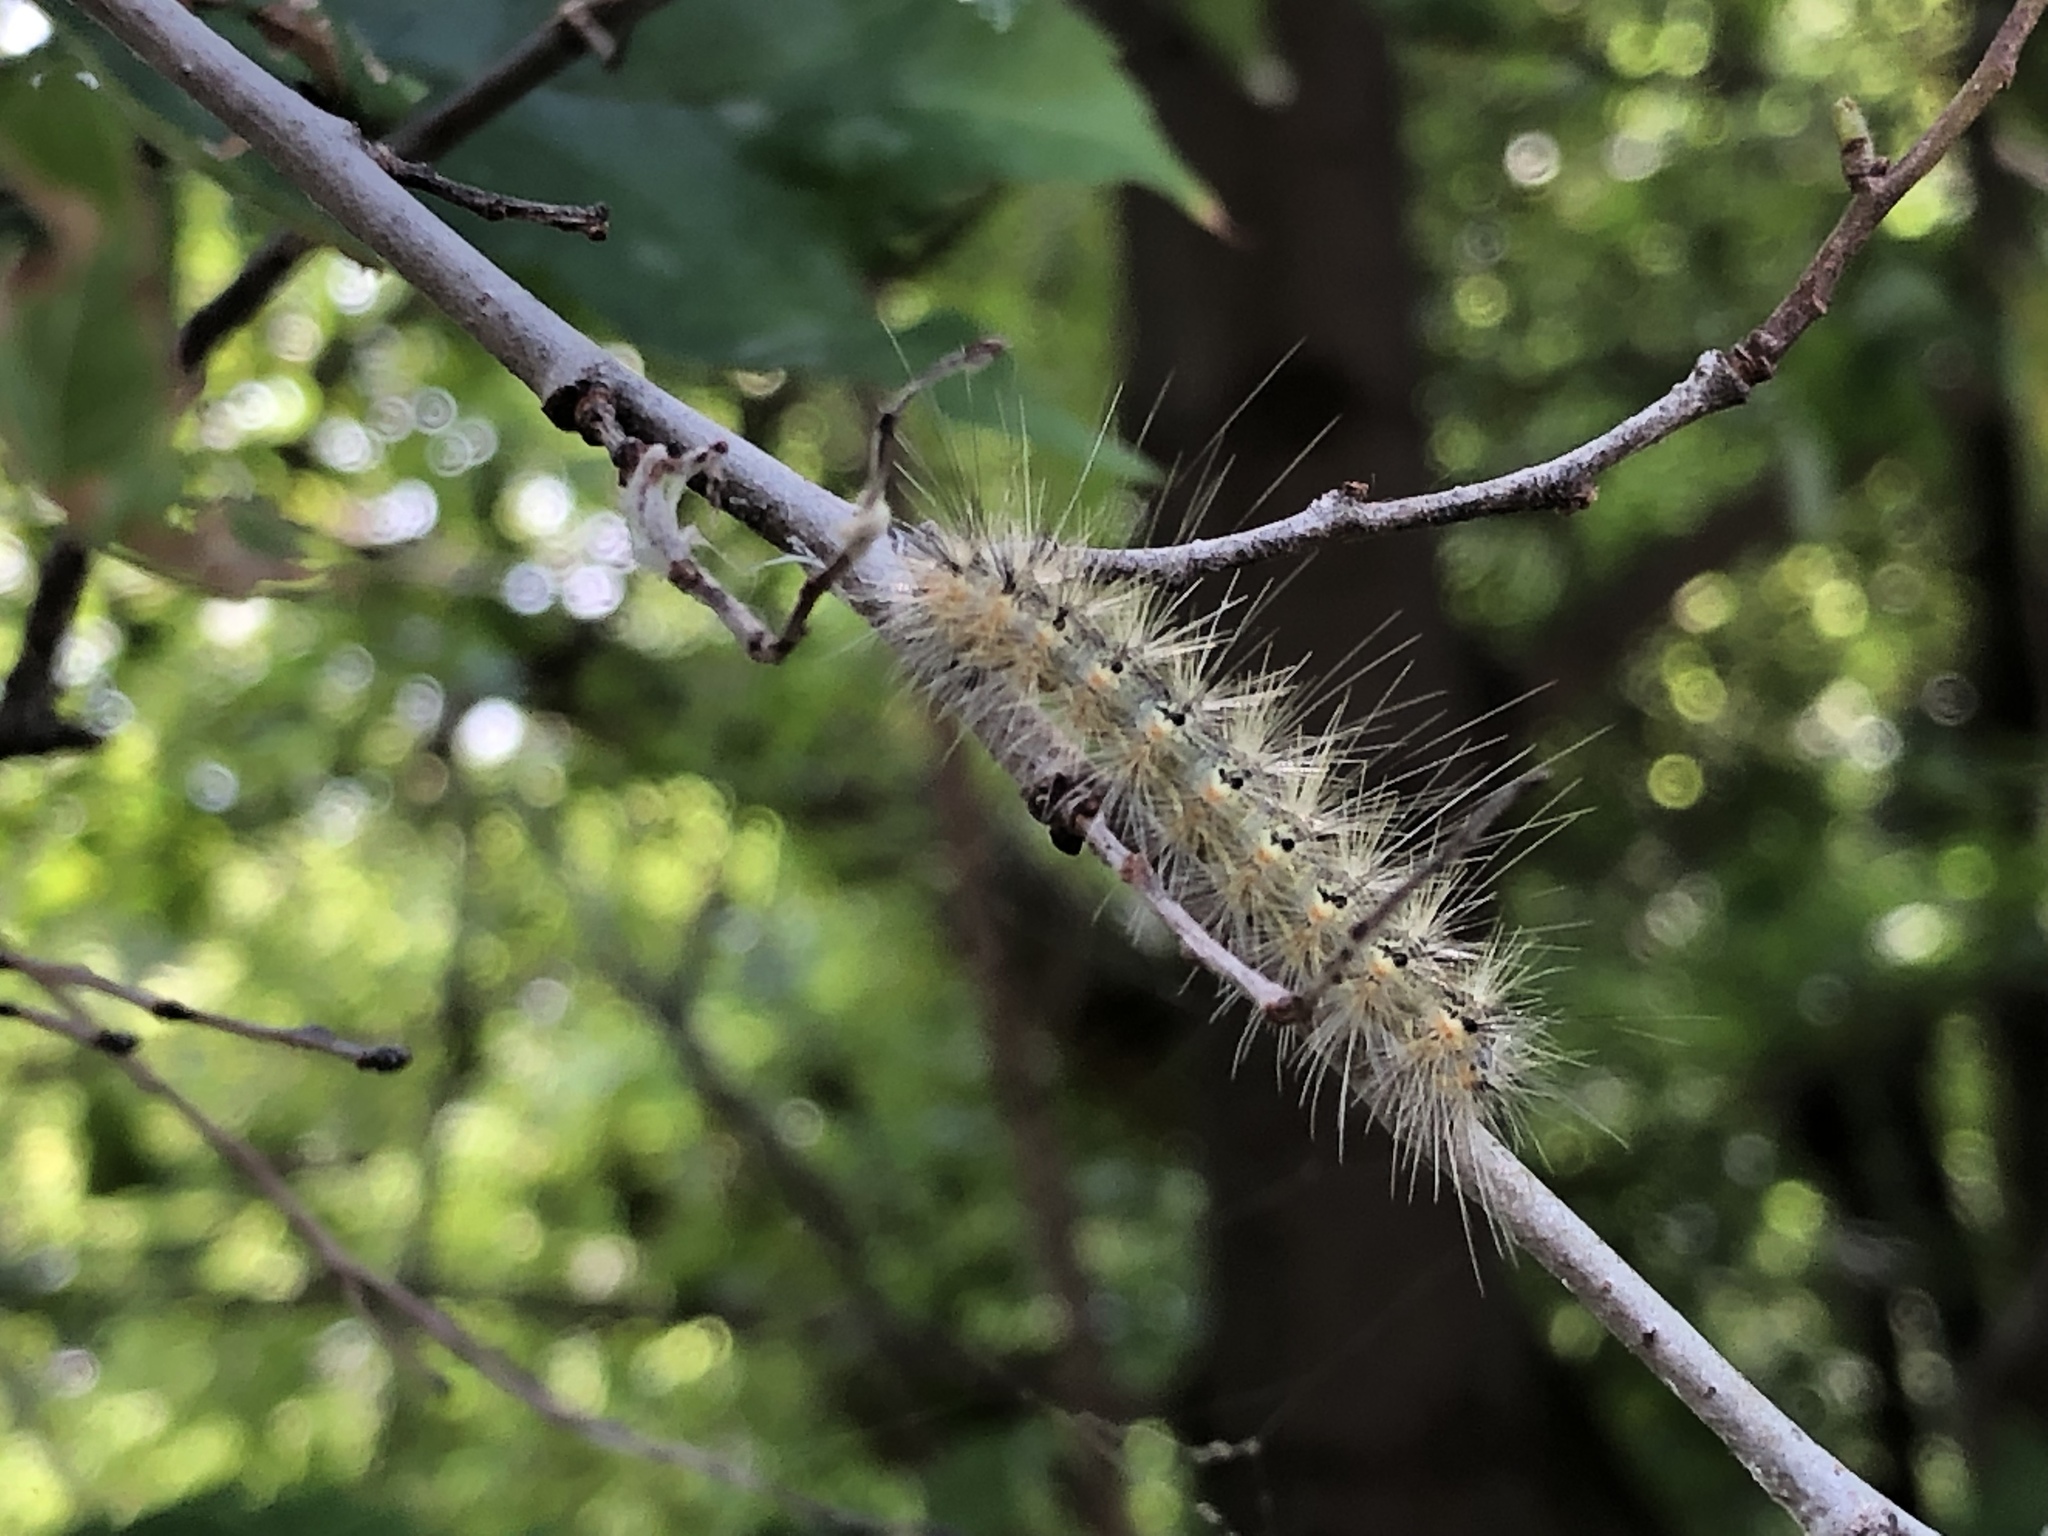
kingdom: Animalia
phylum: Arthropoda
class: Insecta
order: Lepidoptera
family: Erebidae
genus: Hyphantria
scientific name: Hyphantria cunea
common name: American white moth
